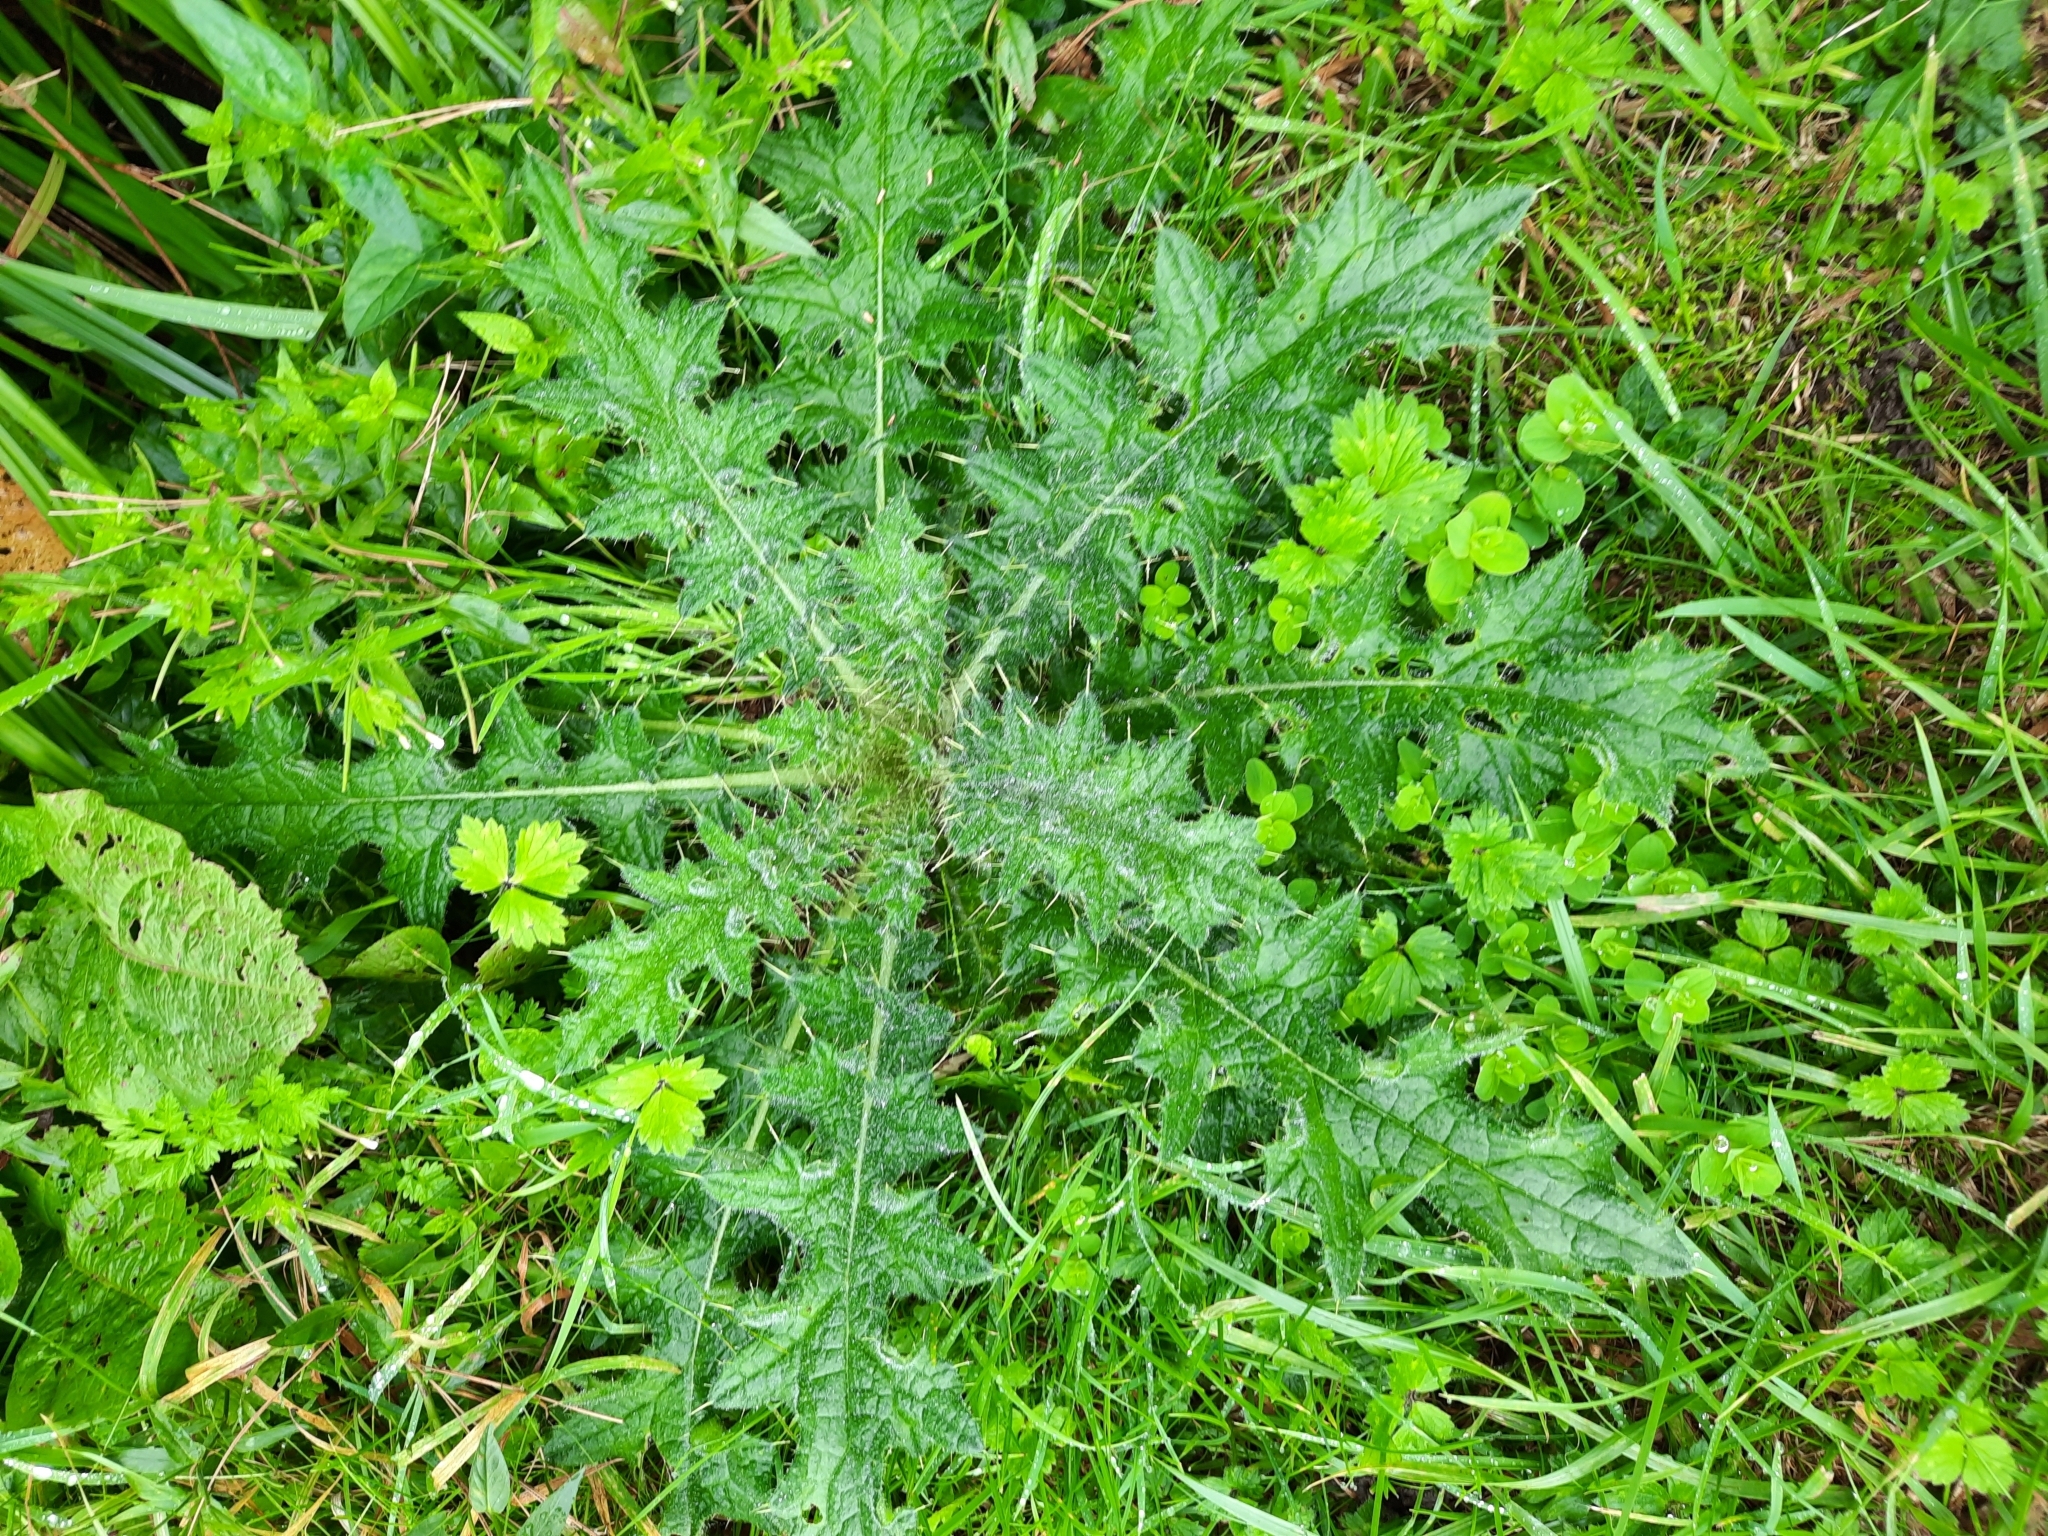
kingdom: Plantae
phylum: Tracheophyta
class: Magnoliopsida
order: Asterales
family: Asteraceae
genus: Cirsium
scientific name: Cirsium vulgare
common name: Bull thistle
